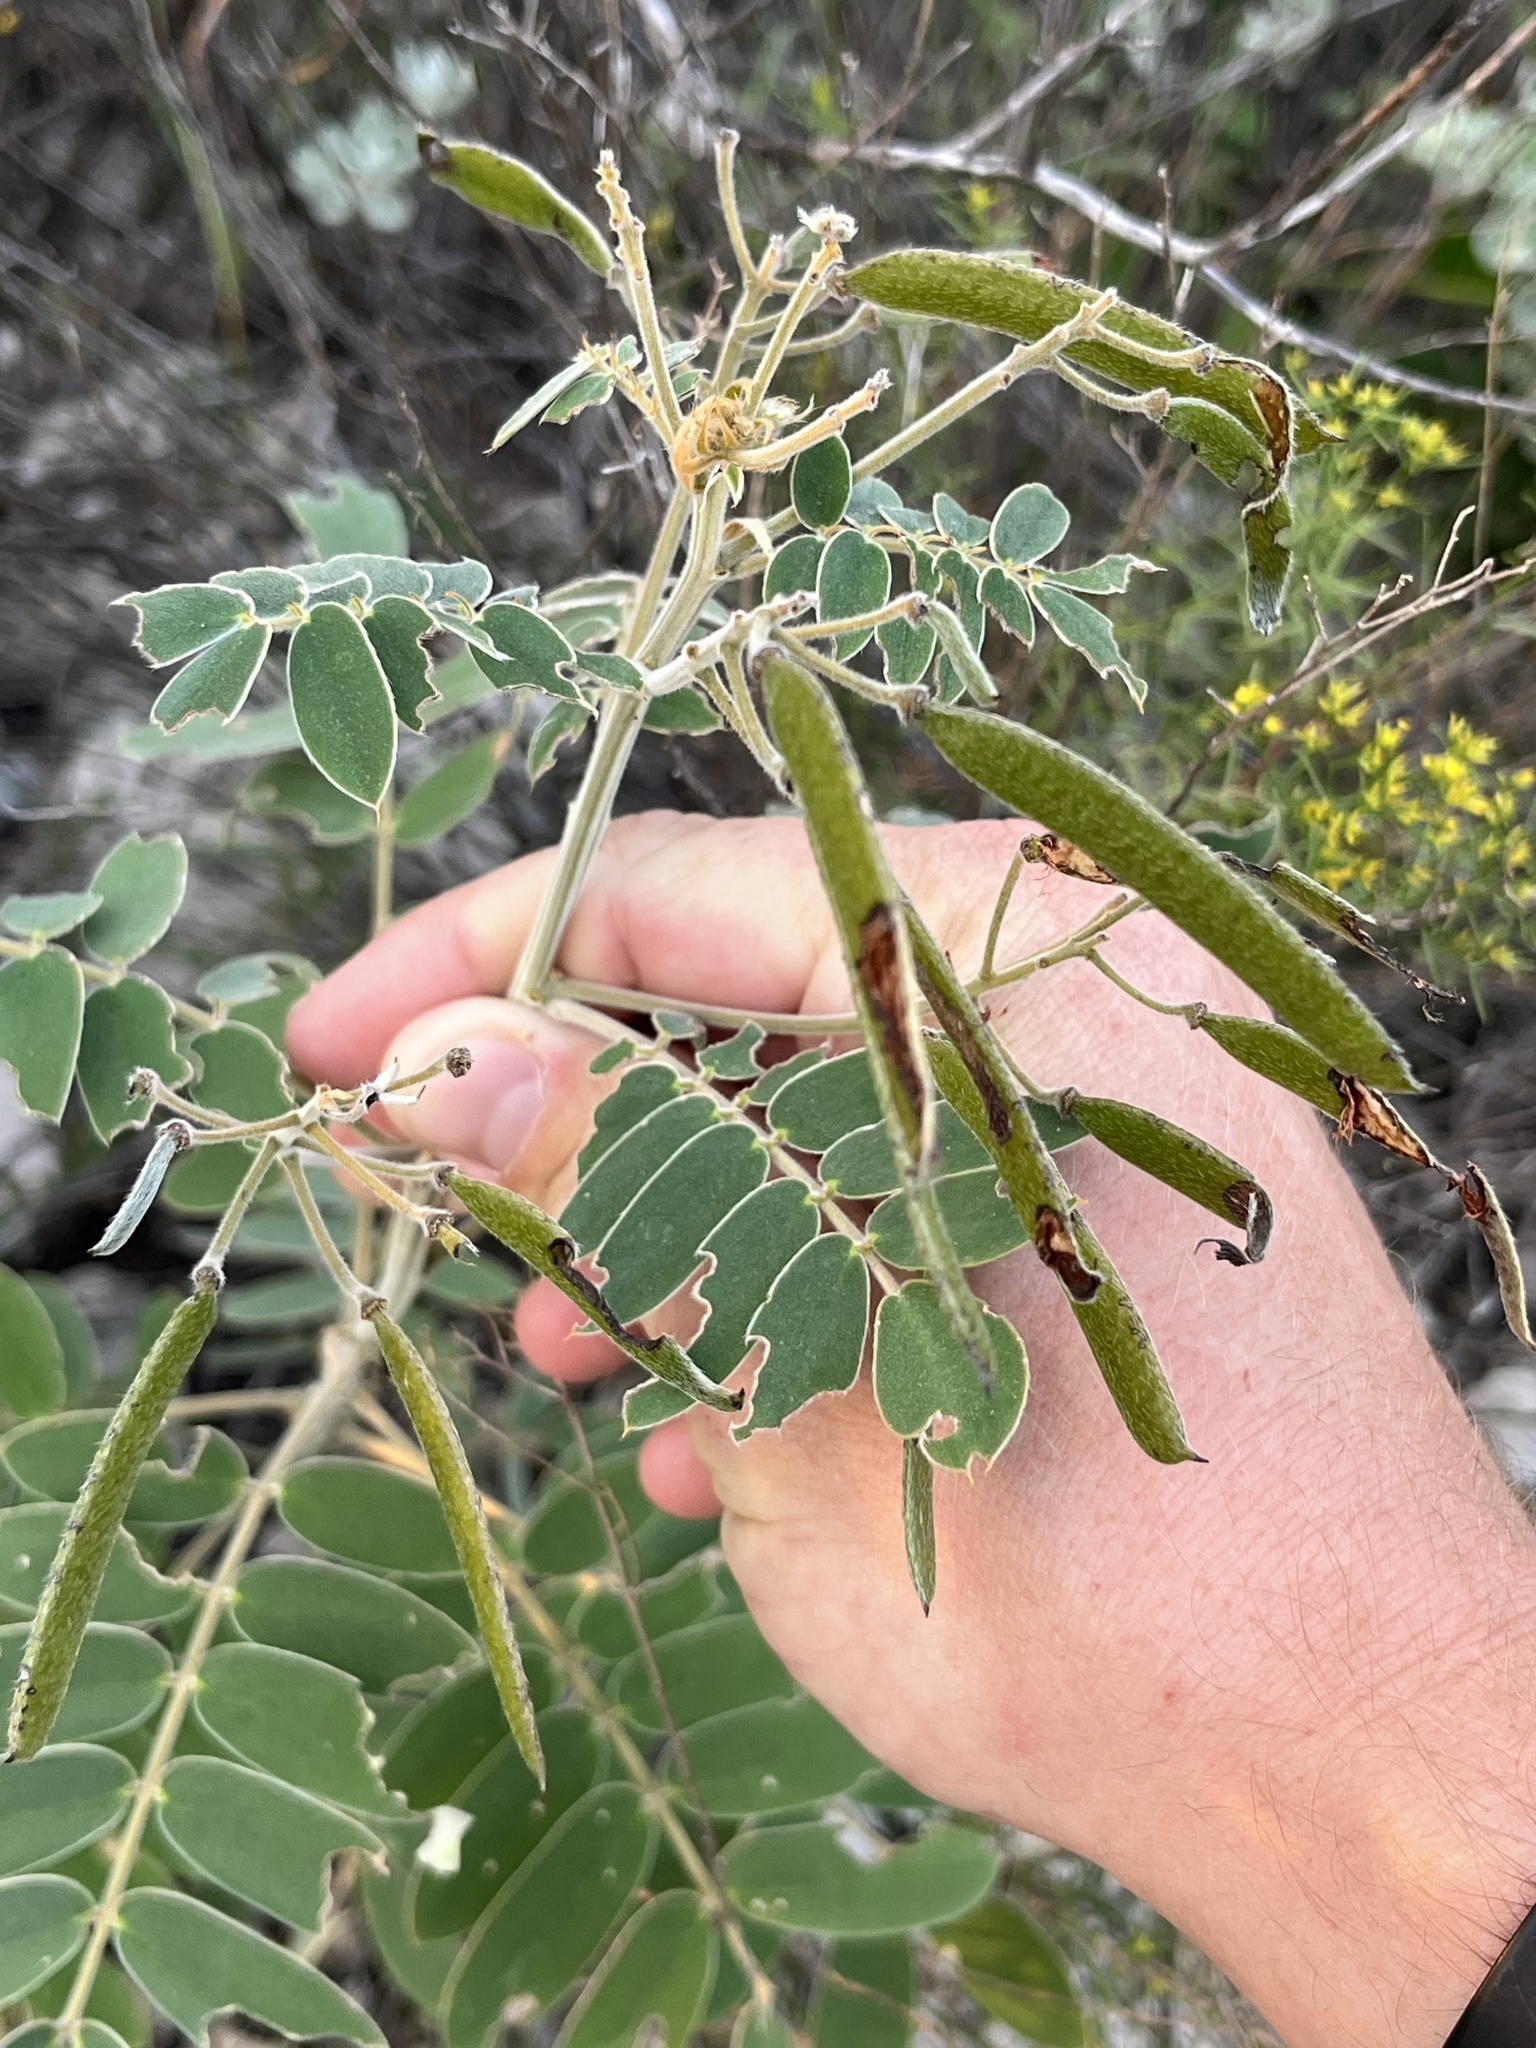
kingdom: Plantae
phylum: Tracheophyta
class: Magnoliopsida
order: Fabales
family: Fabaceae
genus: Senna
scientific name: Senna lindheimeriana
